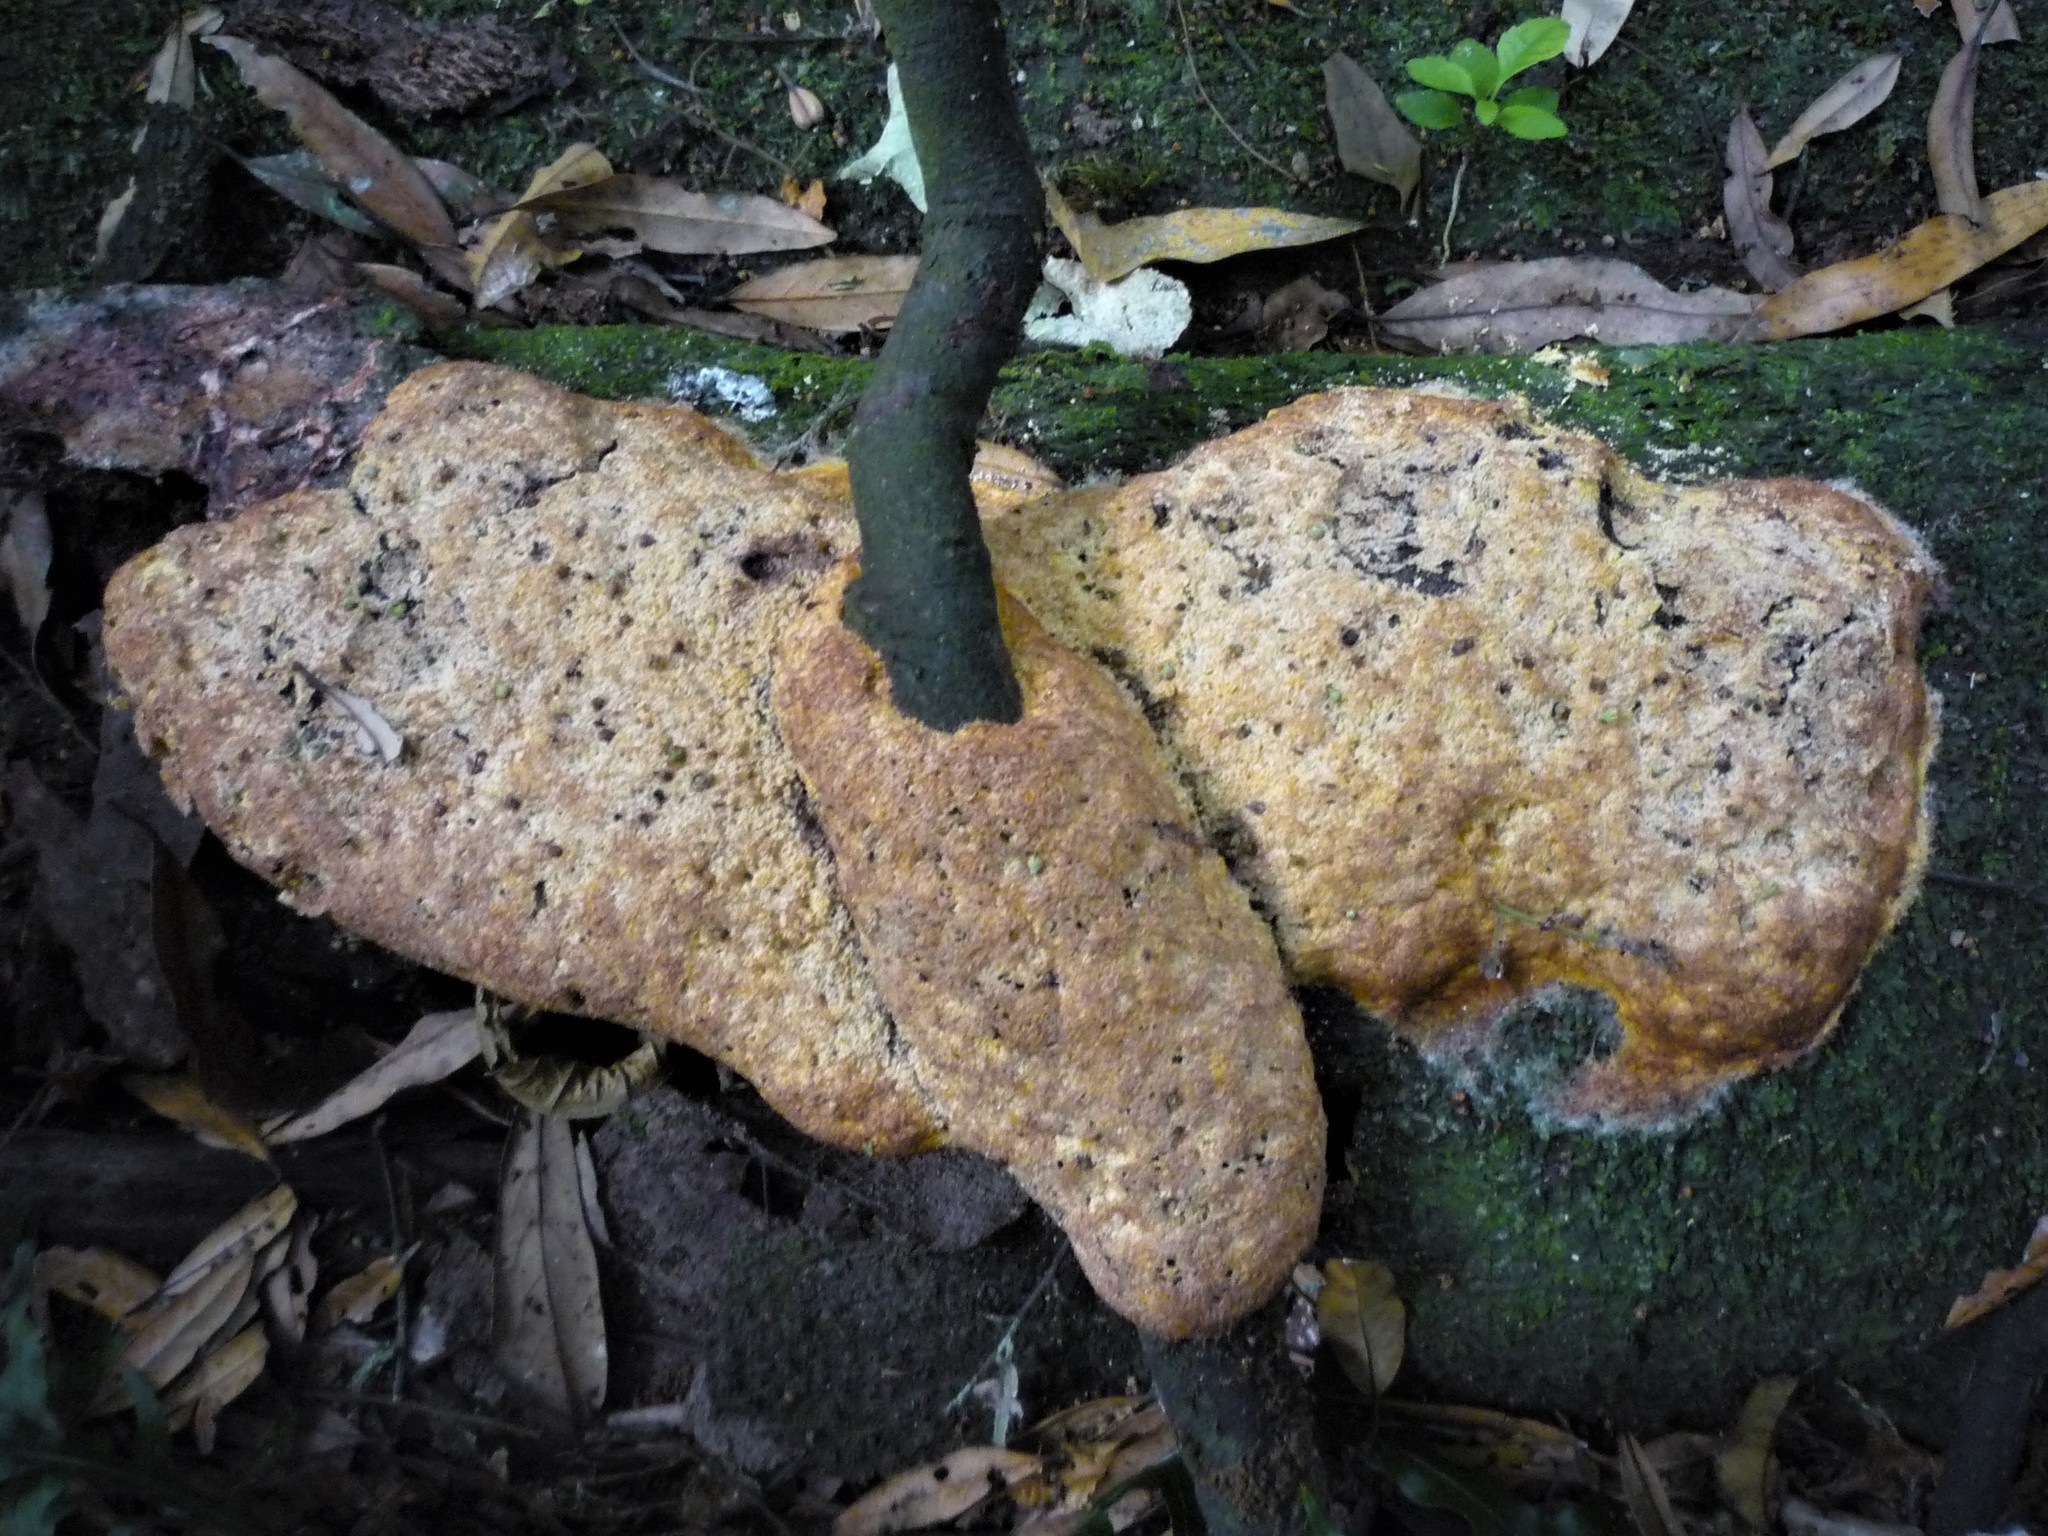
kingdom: Protozoa
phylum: Mycetozoa
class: Myxomycetes
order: Physarales
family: Physaraceae
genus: Fuligo
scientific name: Fuligo septica
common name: Dog vomit slime mold
